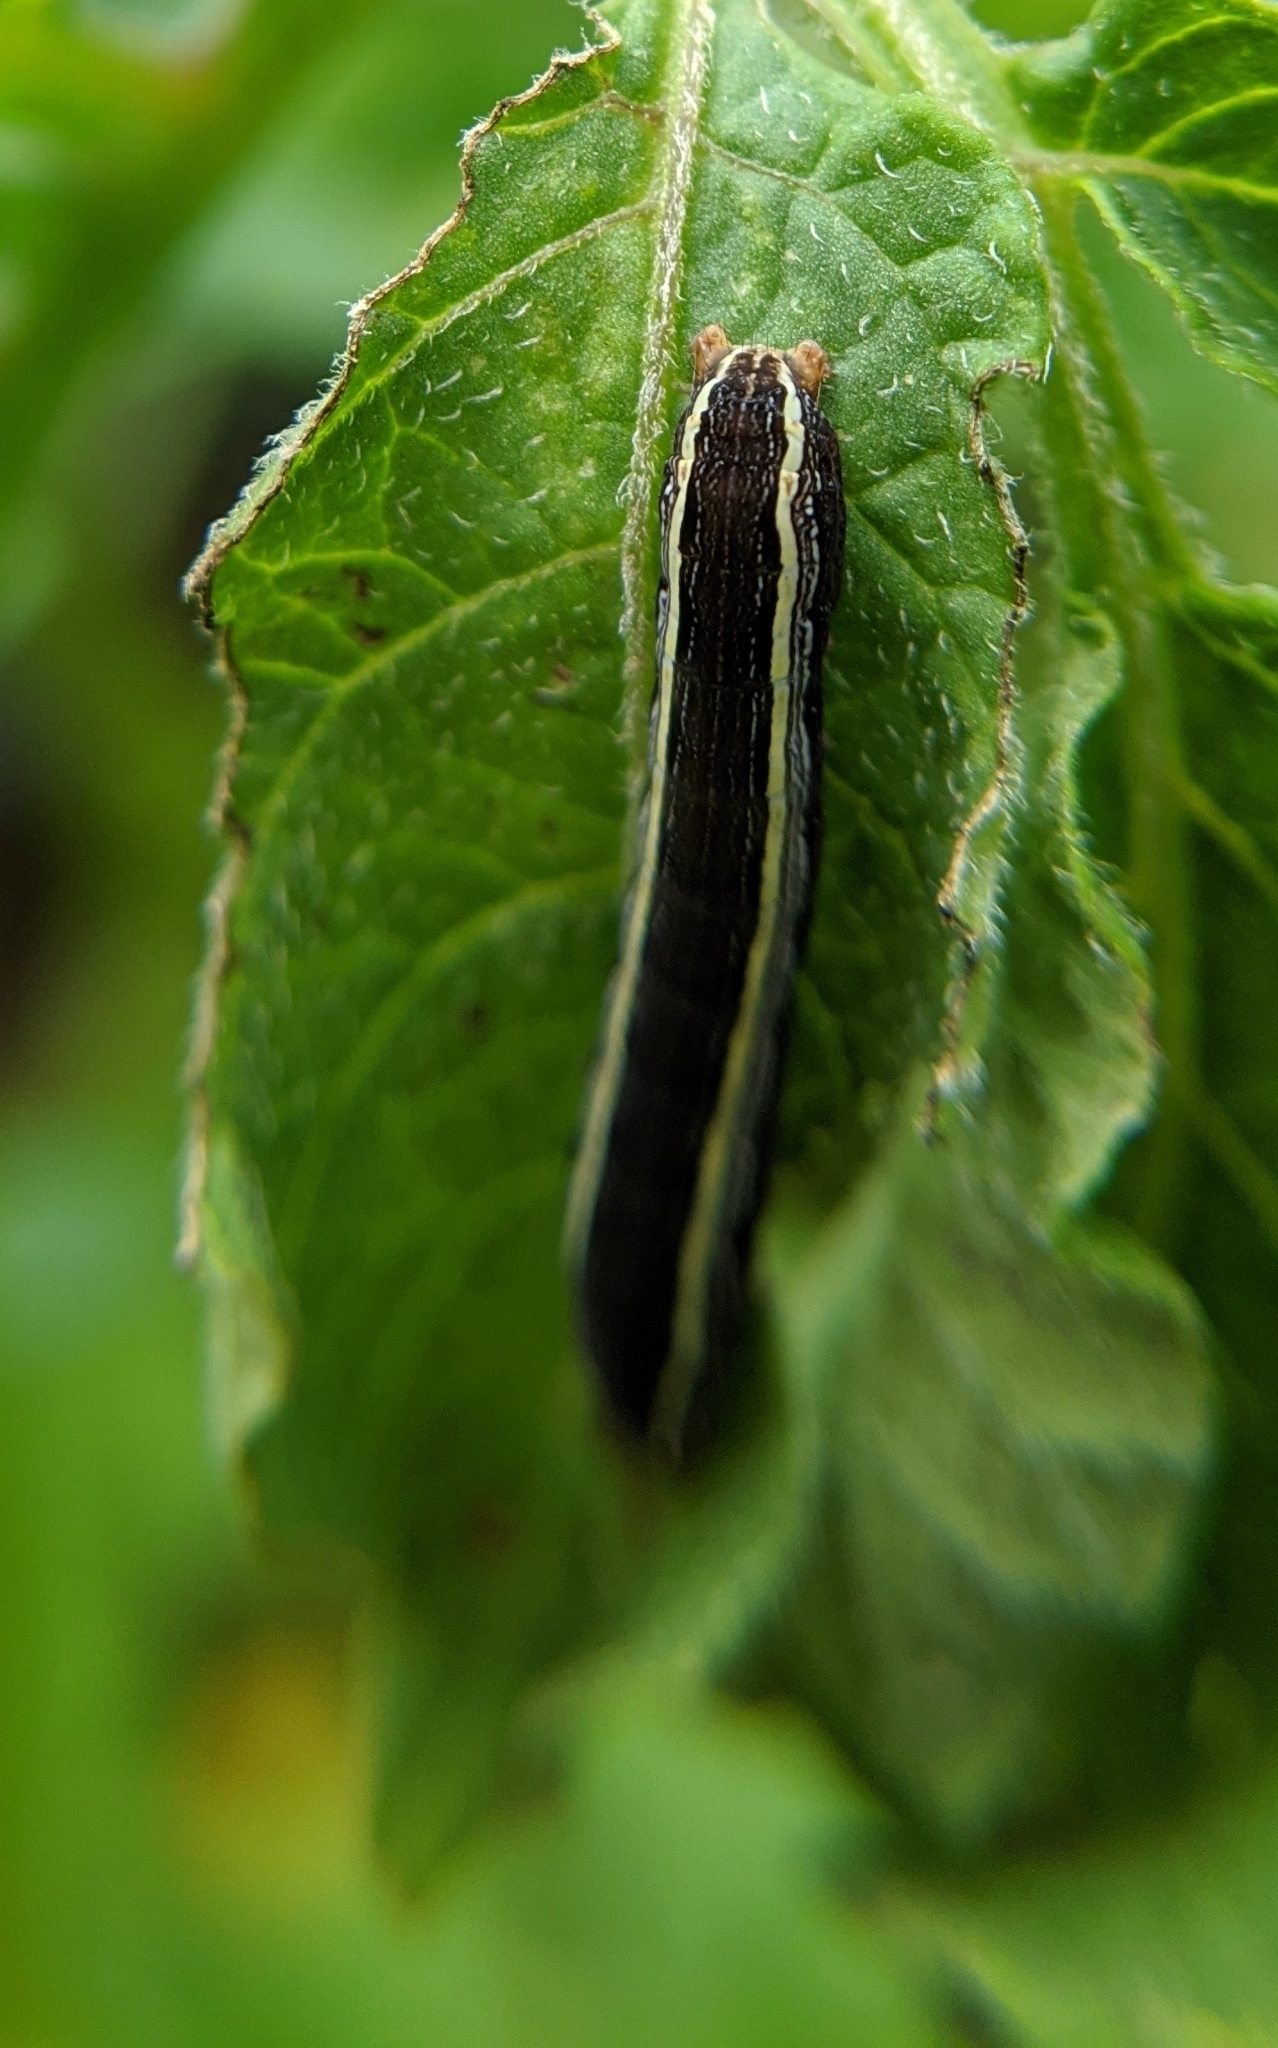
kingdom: Animalia
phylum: Arthropoda
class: Insecta
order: Lepidoptera
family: Noctuidae
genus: Spodoptera
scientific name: Spodoptera ornithogalli
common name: Yellow-striped armyworm
